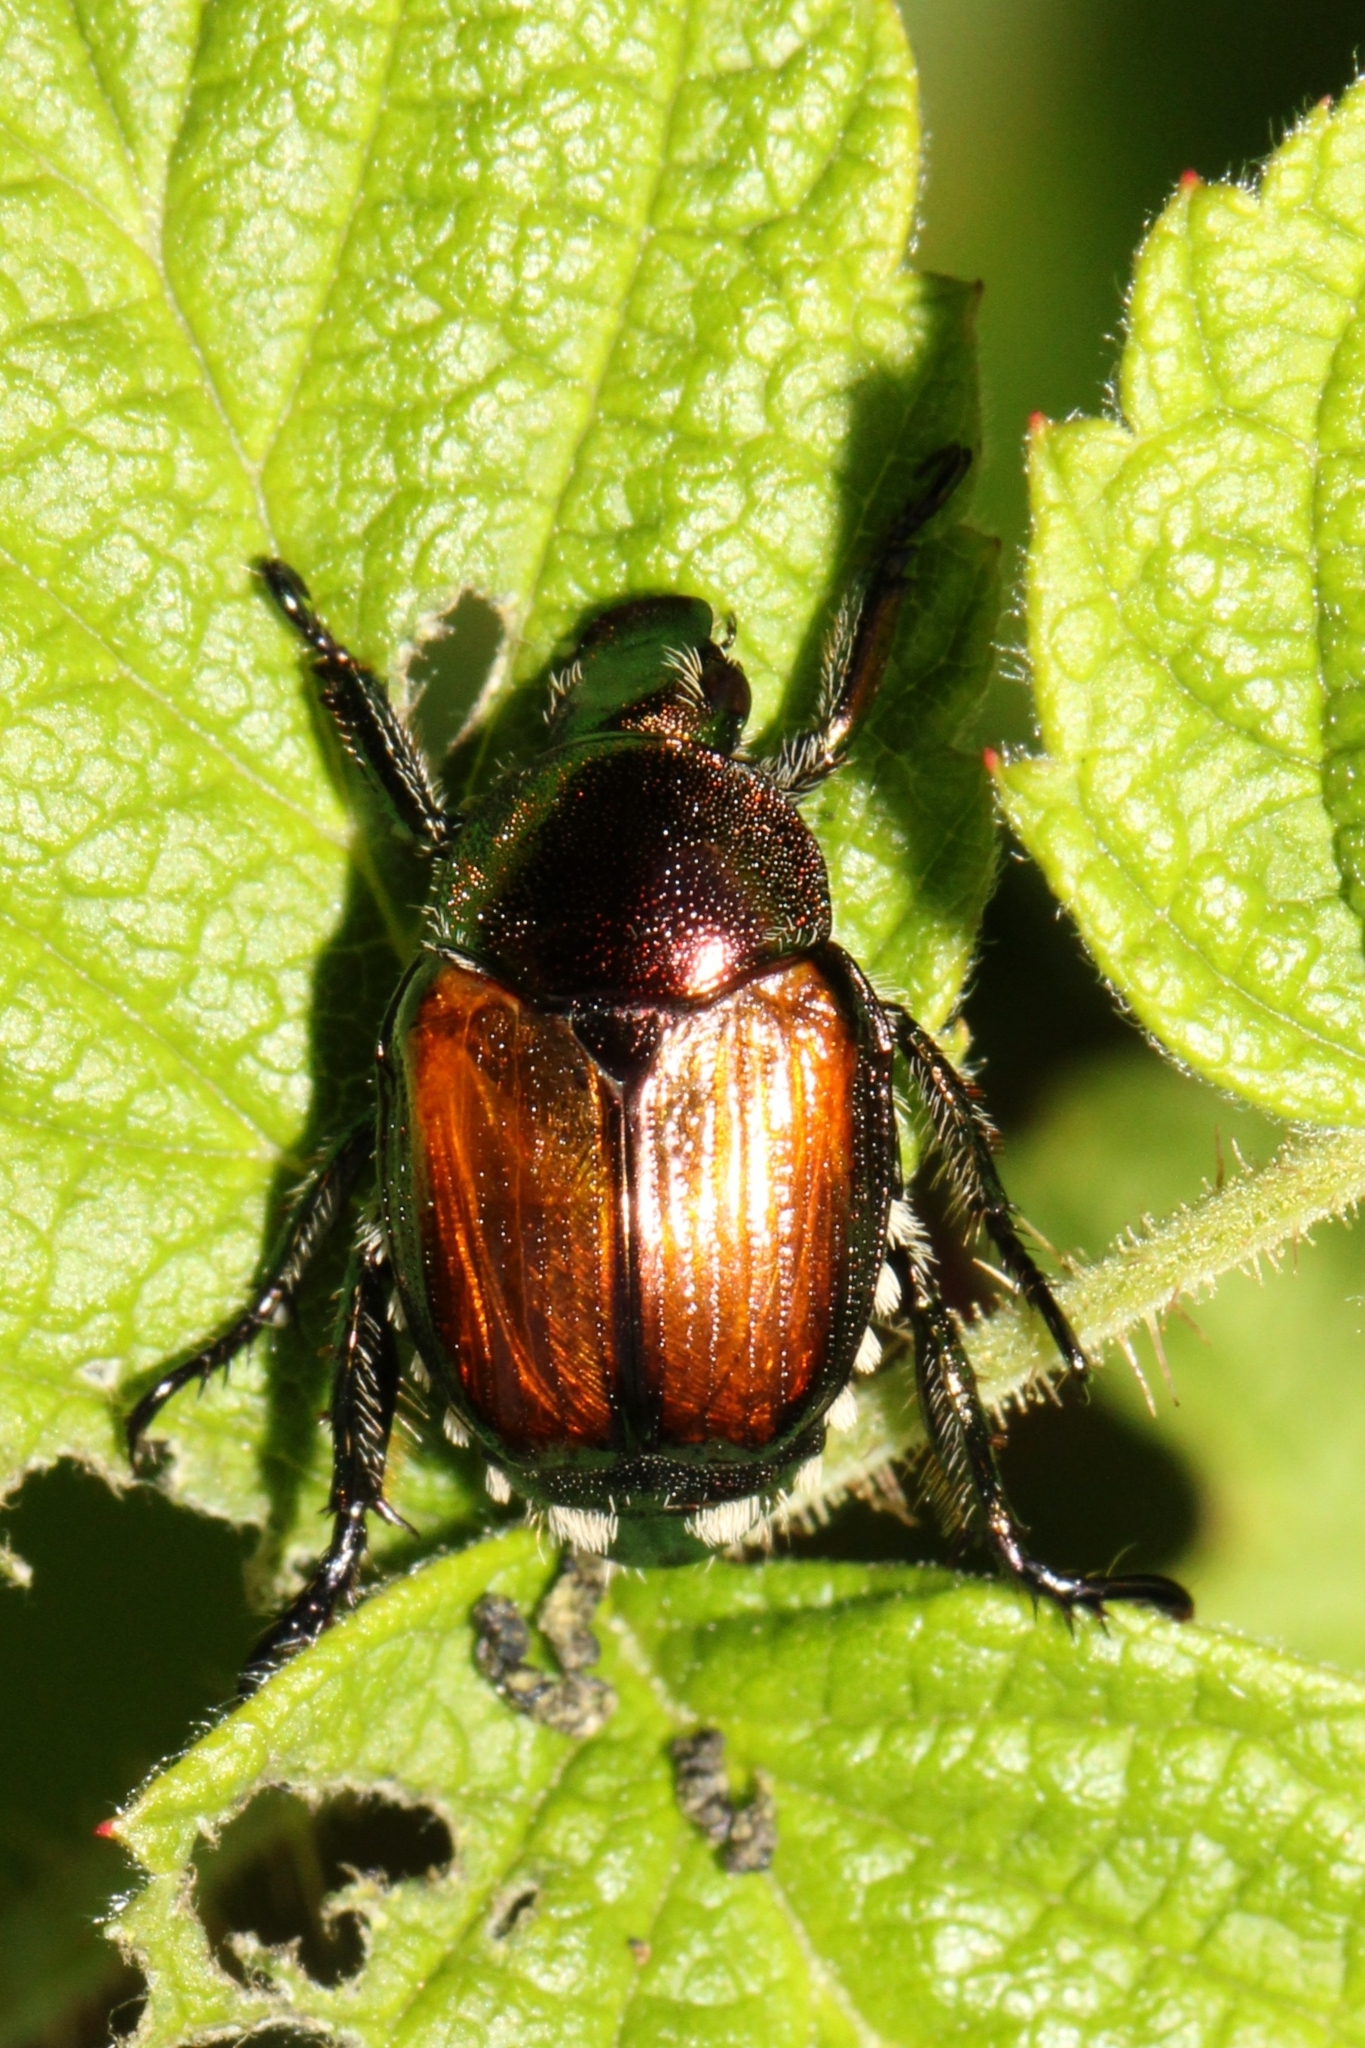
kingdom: Animalia
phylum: Arthropoda
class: Insecta
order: Coleoptera
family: Scarabaeidae
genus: Popillia
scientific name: Popillia japonica
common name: Japanese beetle
